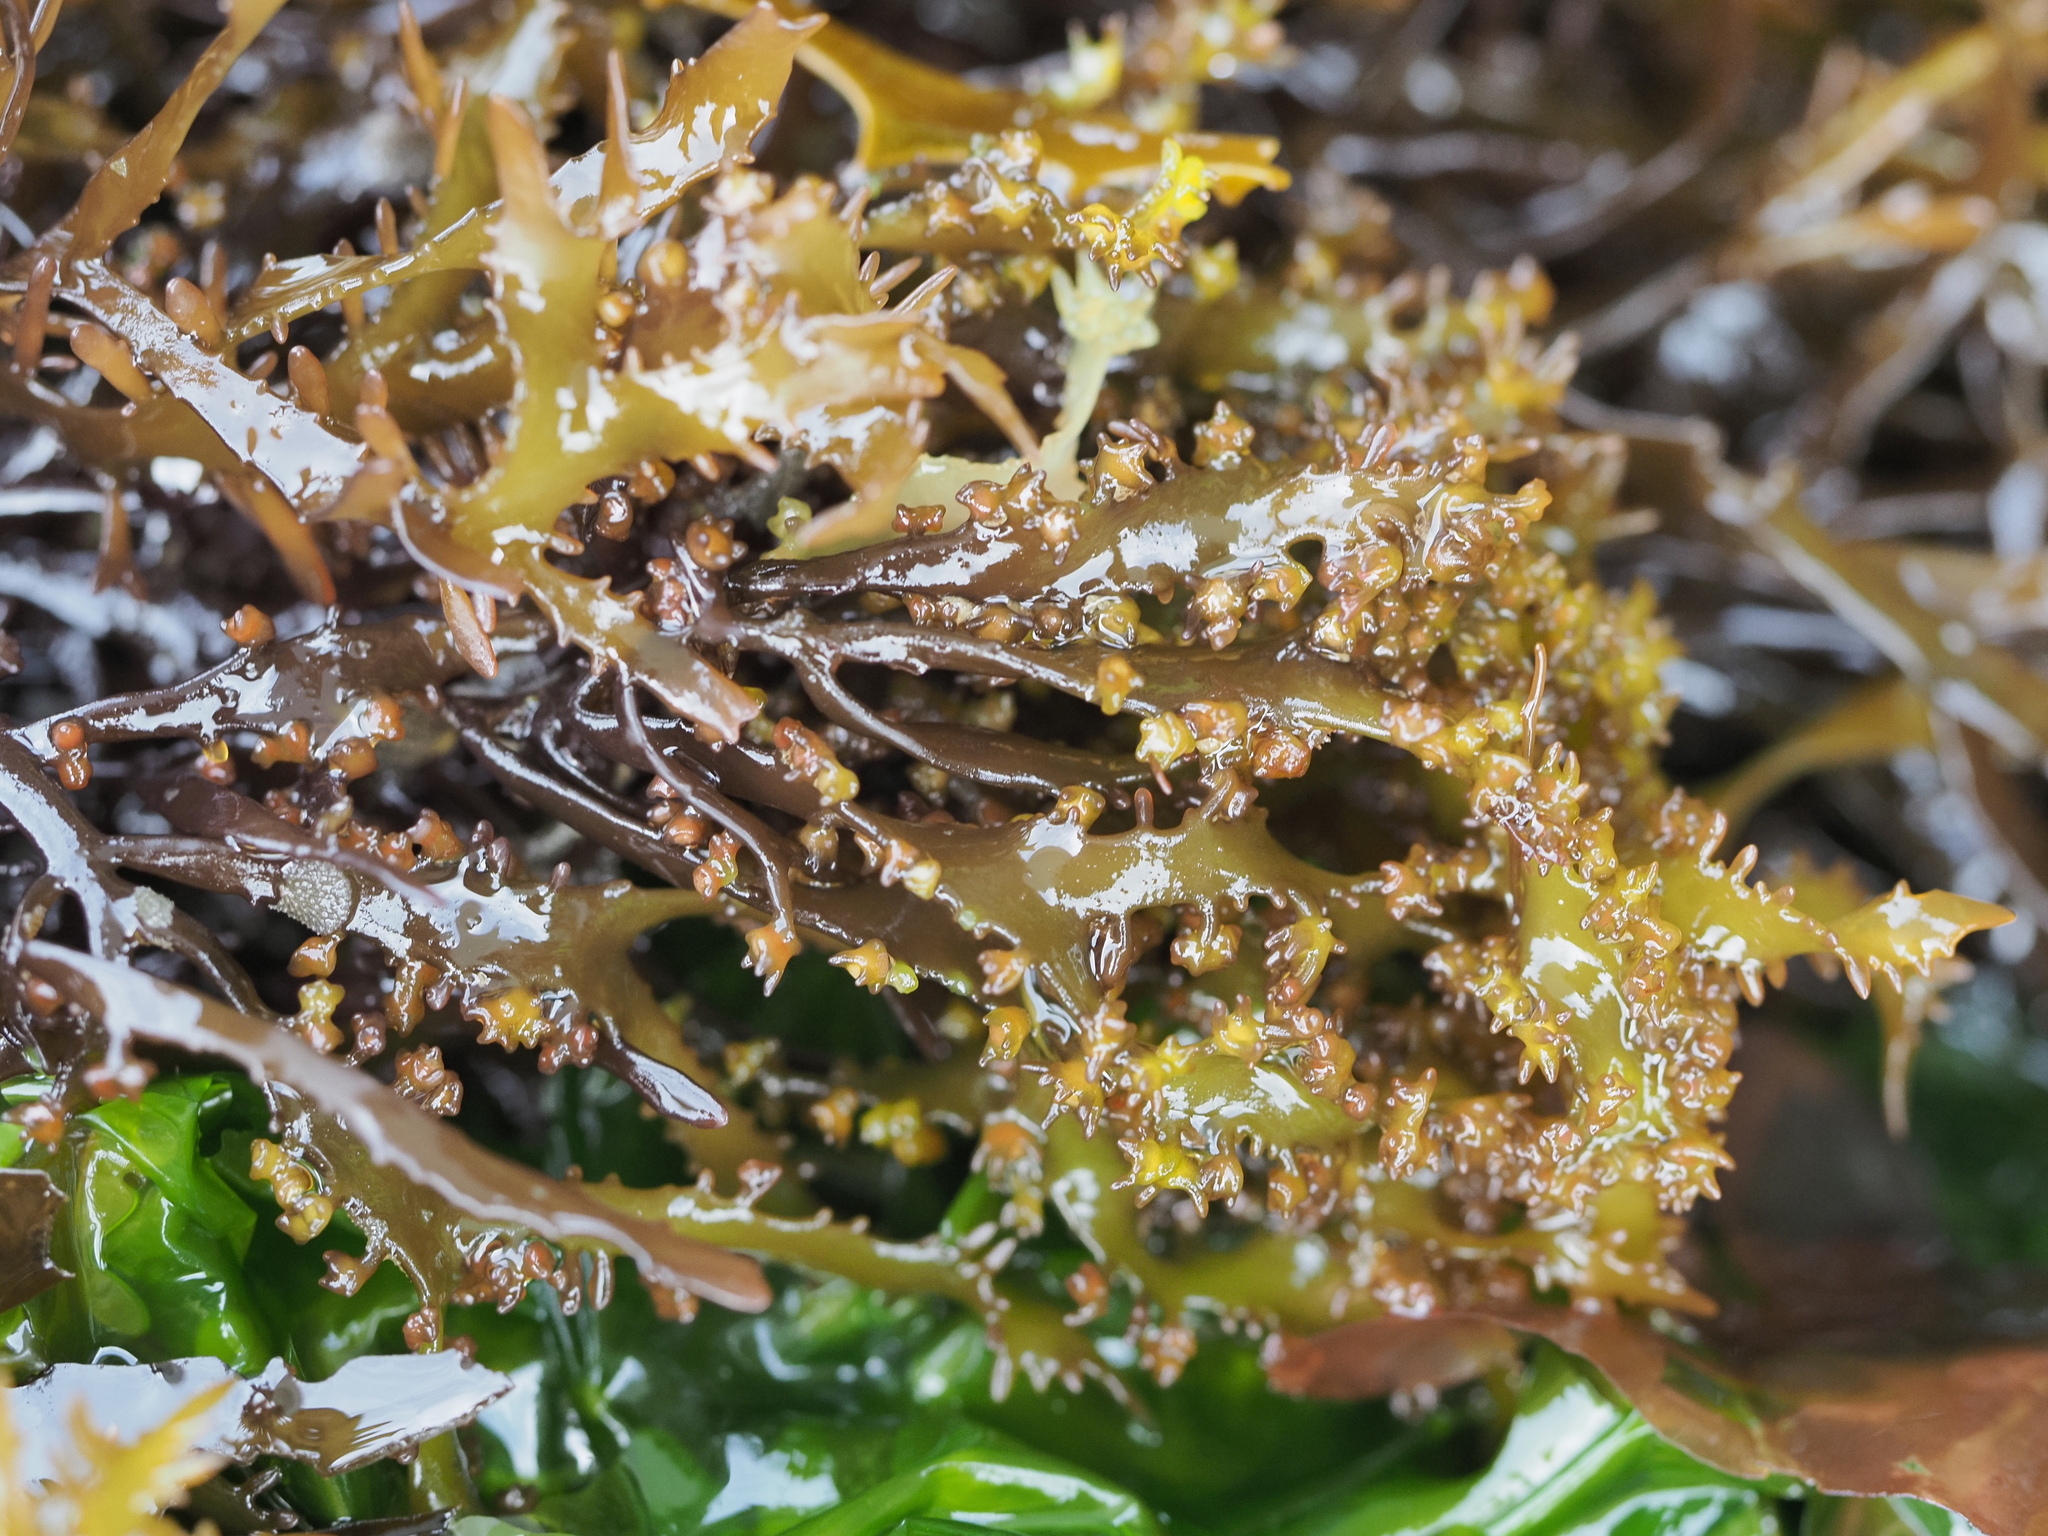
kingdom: Plantae
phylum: Rhodophyta
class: Florideophyceae
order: Gigartinales
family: Gigartinaceae
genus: Gigartina
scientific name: Gigartina macrocarpa
